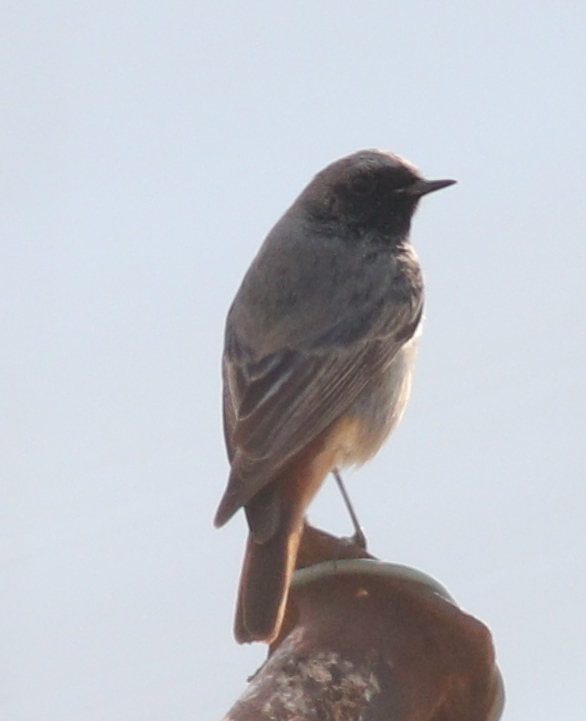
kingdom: Animalia
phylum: Chordata
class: Aves
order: Passeriformes
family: Muscicapidae
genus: Phoenicurus
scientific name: Phoenicurus ochruros
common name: Black redstart
